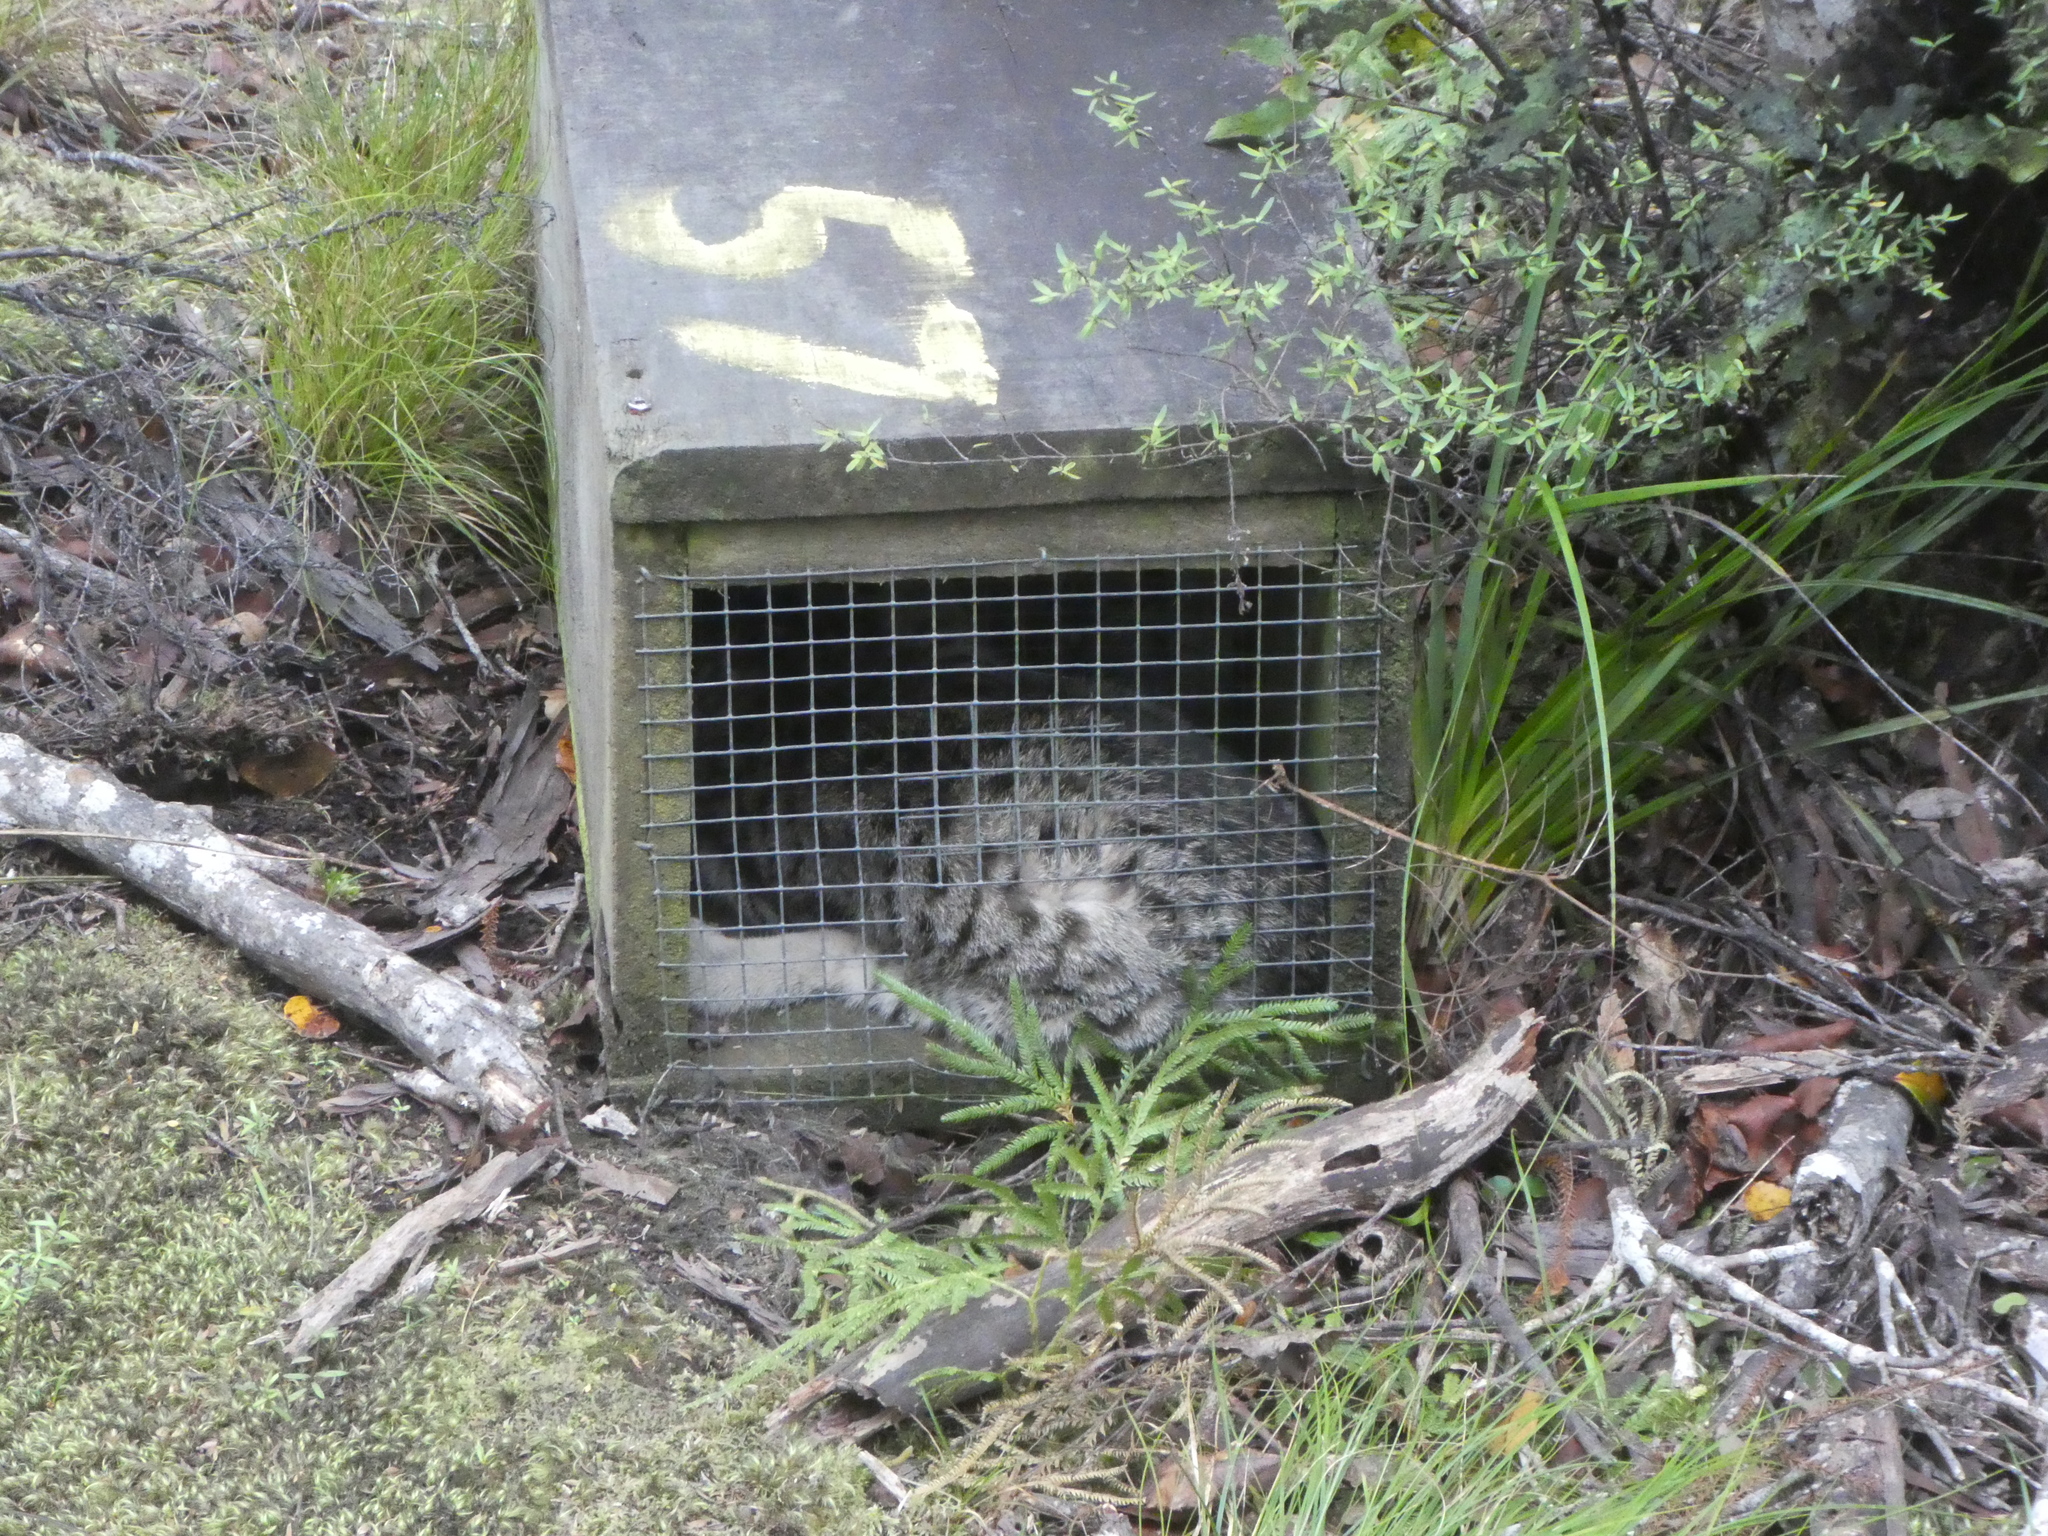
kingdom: Animalia
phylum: Chordata
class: Mammalia
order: Carnivora
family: Felidae
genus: Felis
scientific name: Felis catus
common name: Domestic cat
